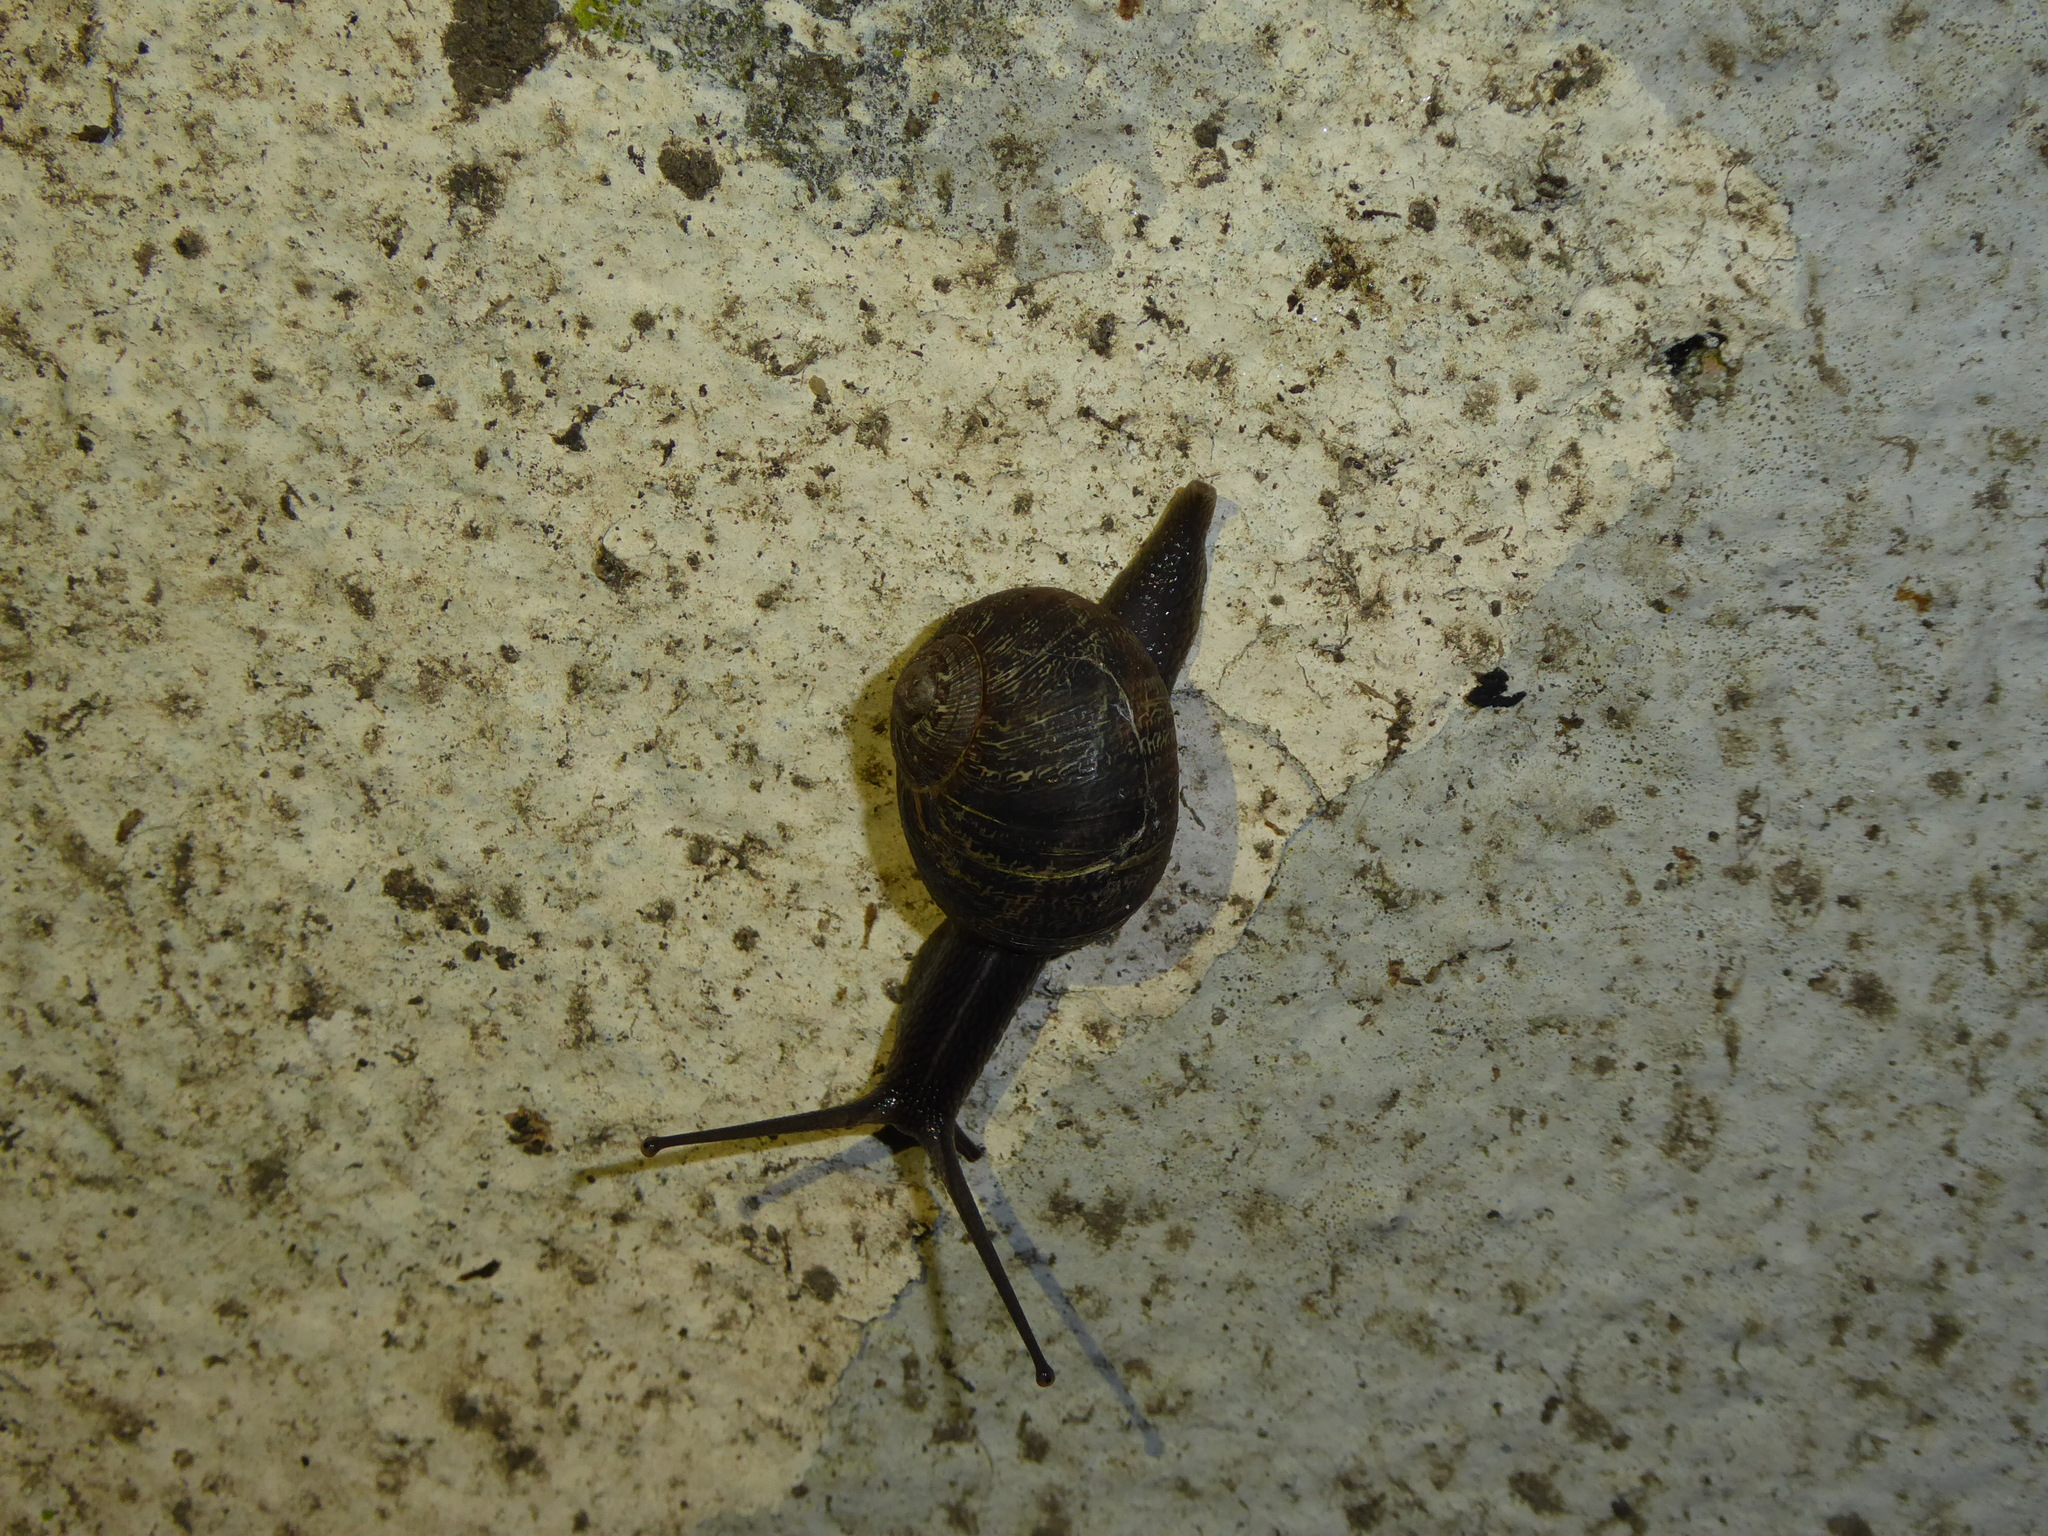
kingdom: Animalia
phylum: Mollusca
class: Gastropoda
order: Stylommatophora
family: Helicidae
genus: Cornu
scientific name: Cornu aspersum
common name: Brown garden snail
